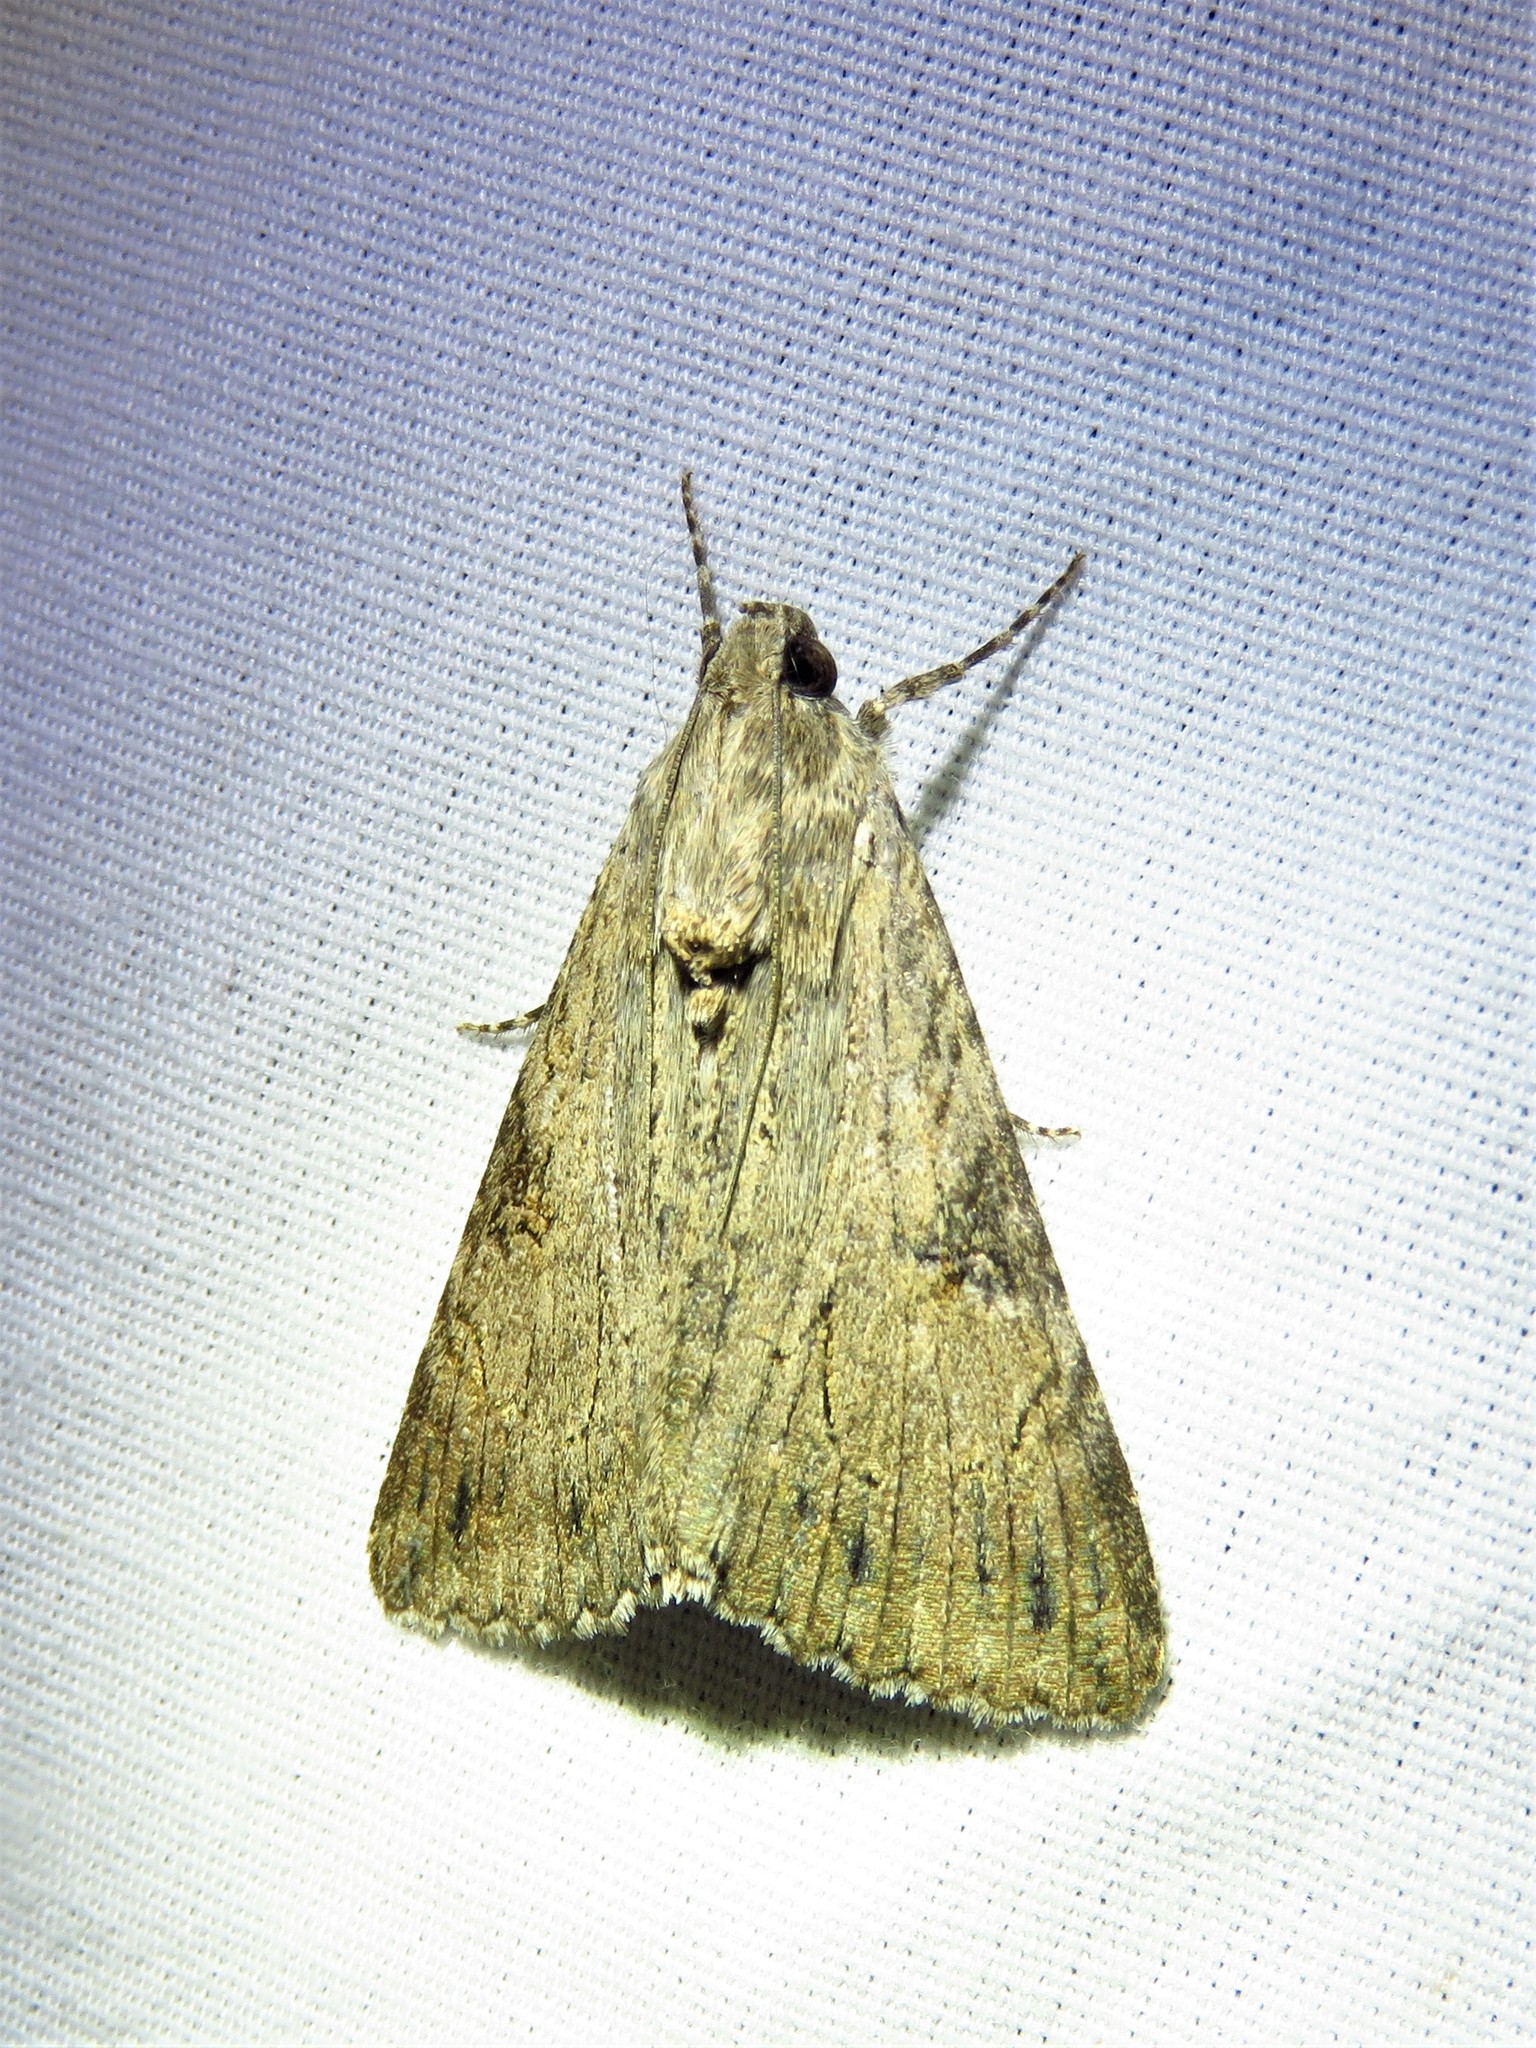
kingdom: Animalia
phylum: Arthropoda
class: Insecta
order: Lepidoptera
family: Erebidae
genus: Melipotis
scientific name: Melipotis jucunda
